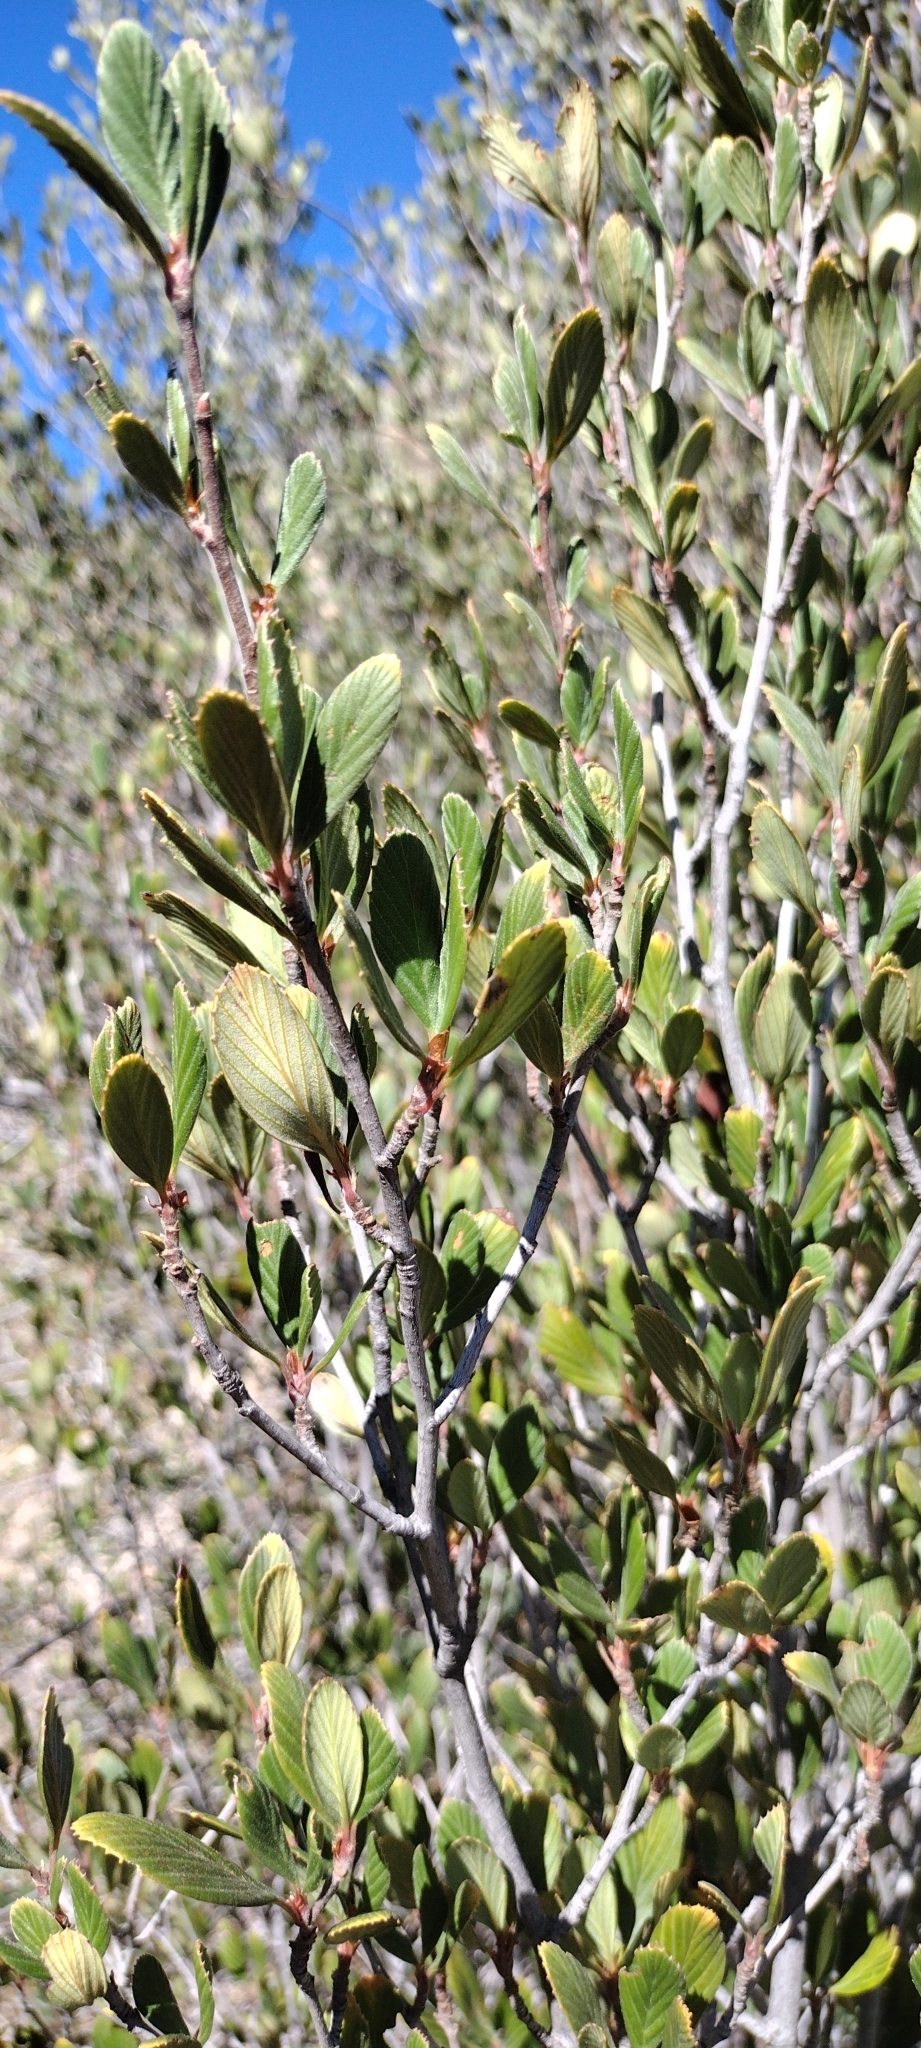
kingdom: Plantae
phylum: Tracheophyta
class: Magnoliopsida
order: Rosales
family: Rosaceae
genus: Cercocarpus
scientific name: Cercocarpus betuloides
